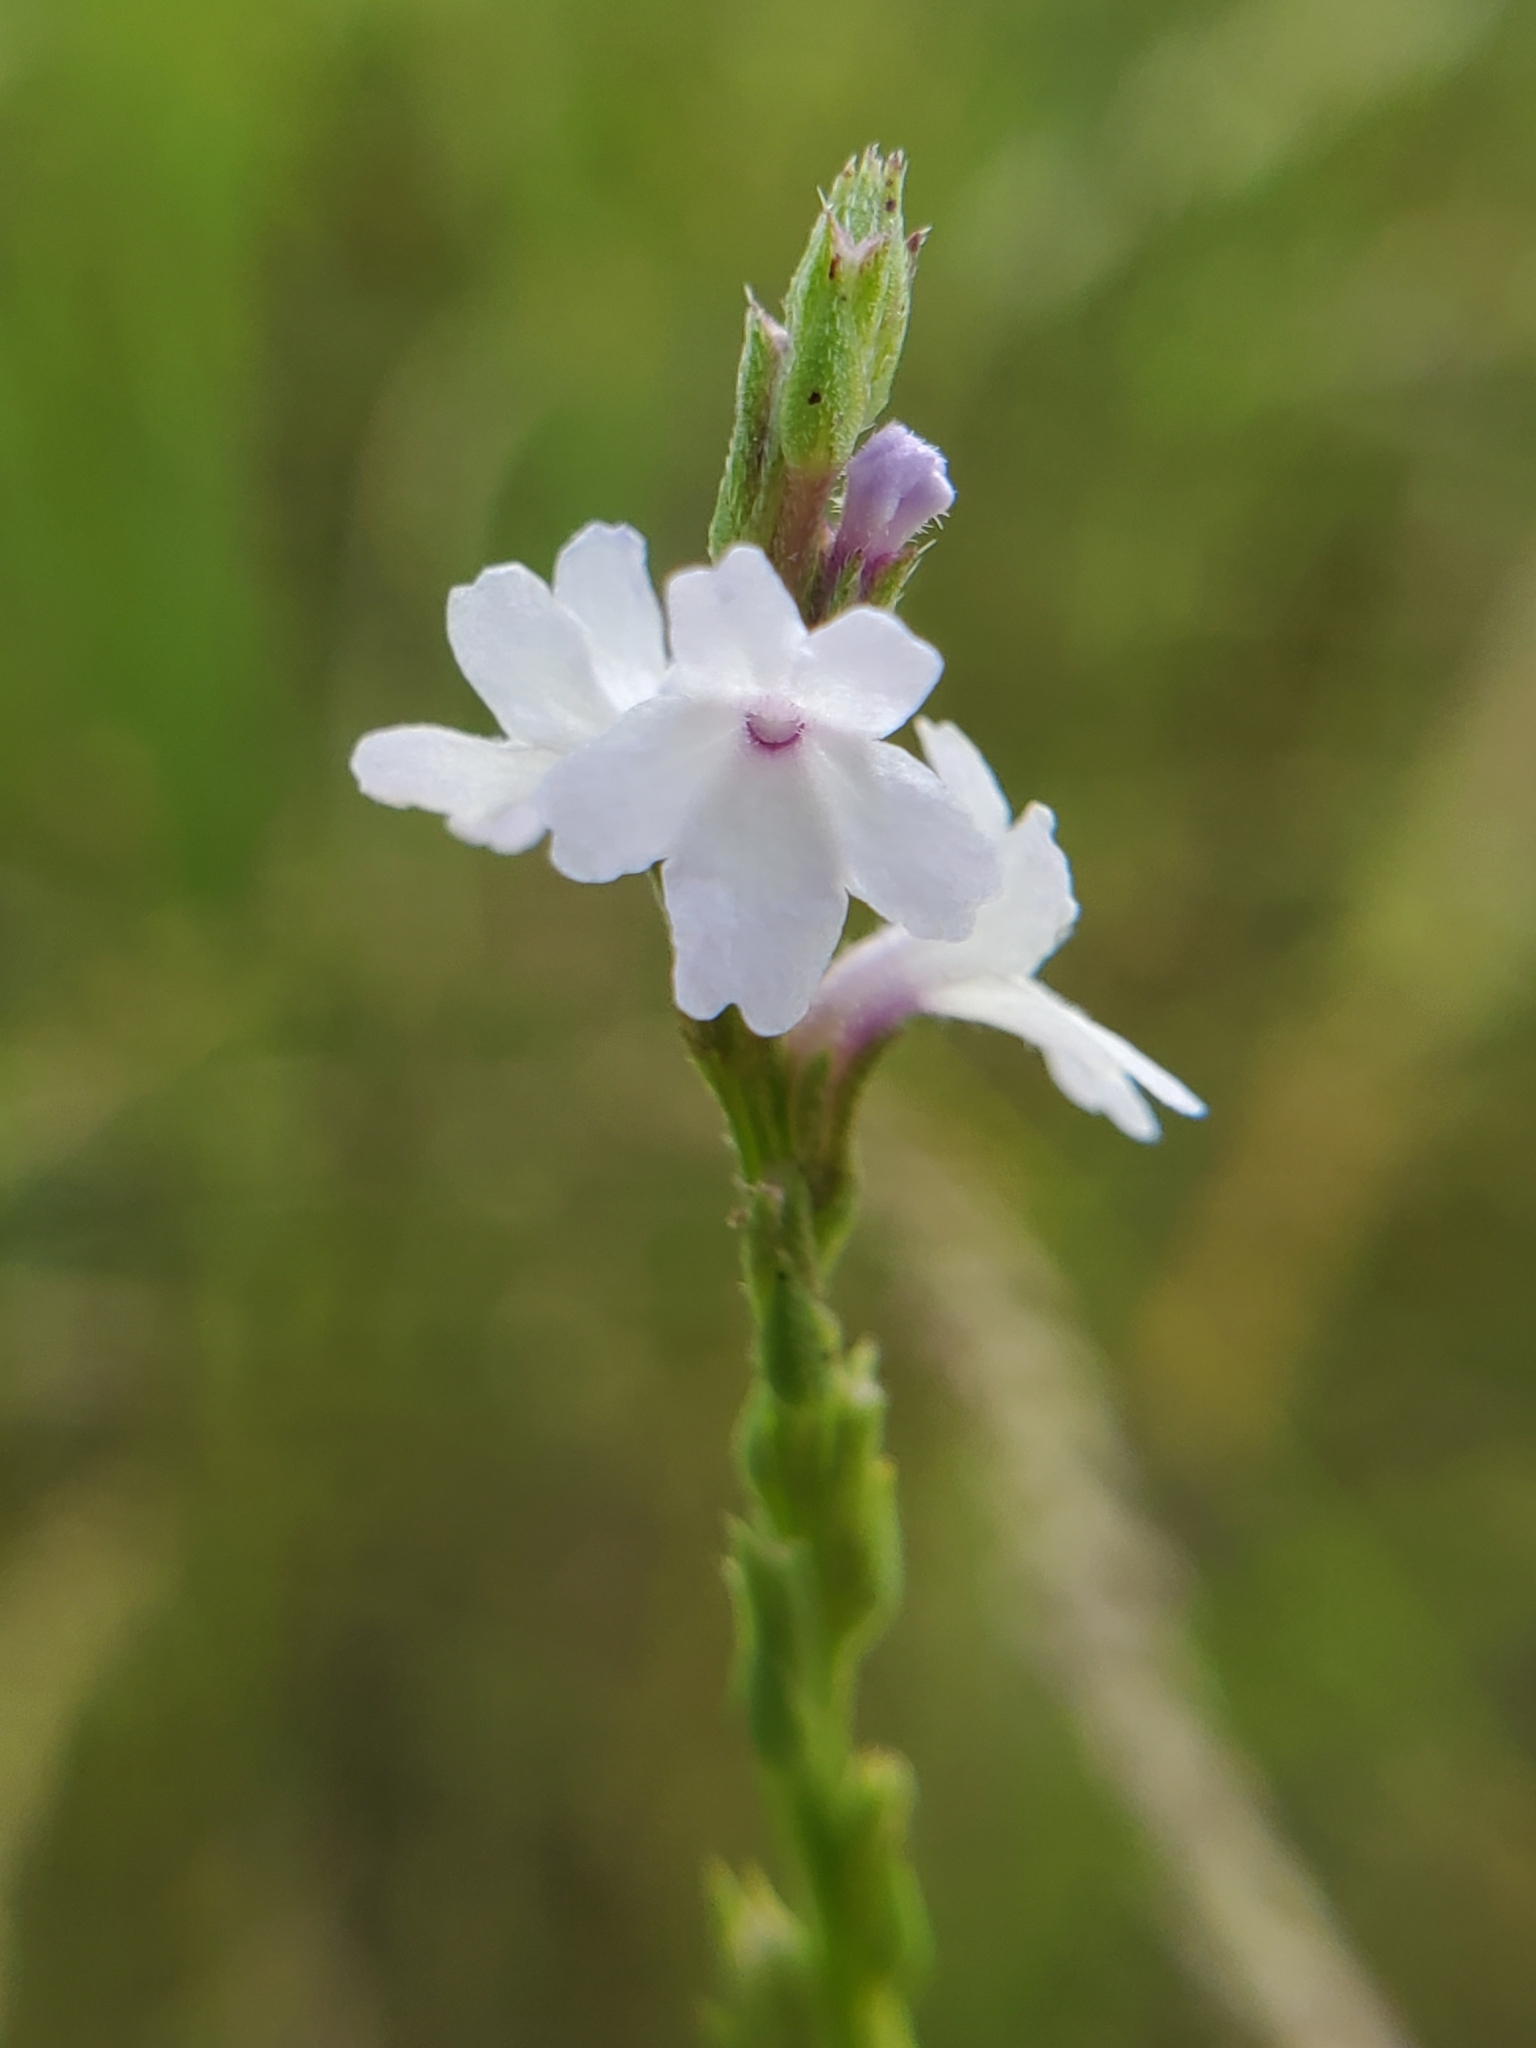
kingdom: Plantae
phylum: Tracheophyta
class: Magnoliopsida
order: Lamiales
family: Verbenaceae
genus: Verbena
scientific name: Verbena simplex
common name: Narrow-leaf vervain
